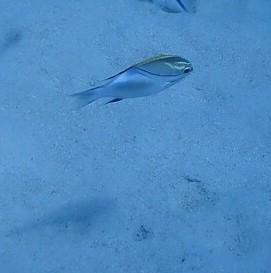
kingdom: Animalia
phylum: Chordata
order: Perciformes
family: Nemipteridae
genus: Scolopsis
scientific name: Scolopsis bilineata
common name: Two-lined monocle bream
